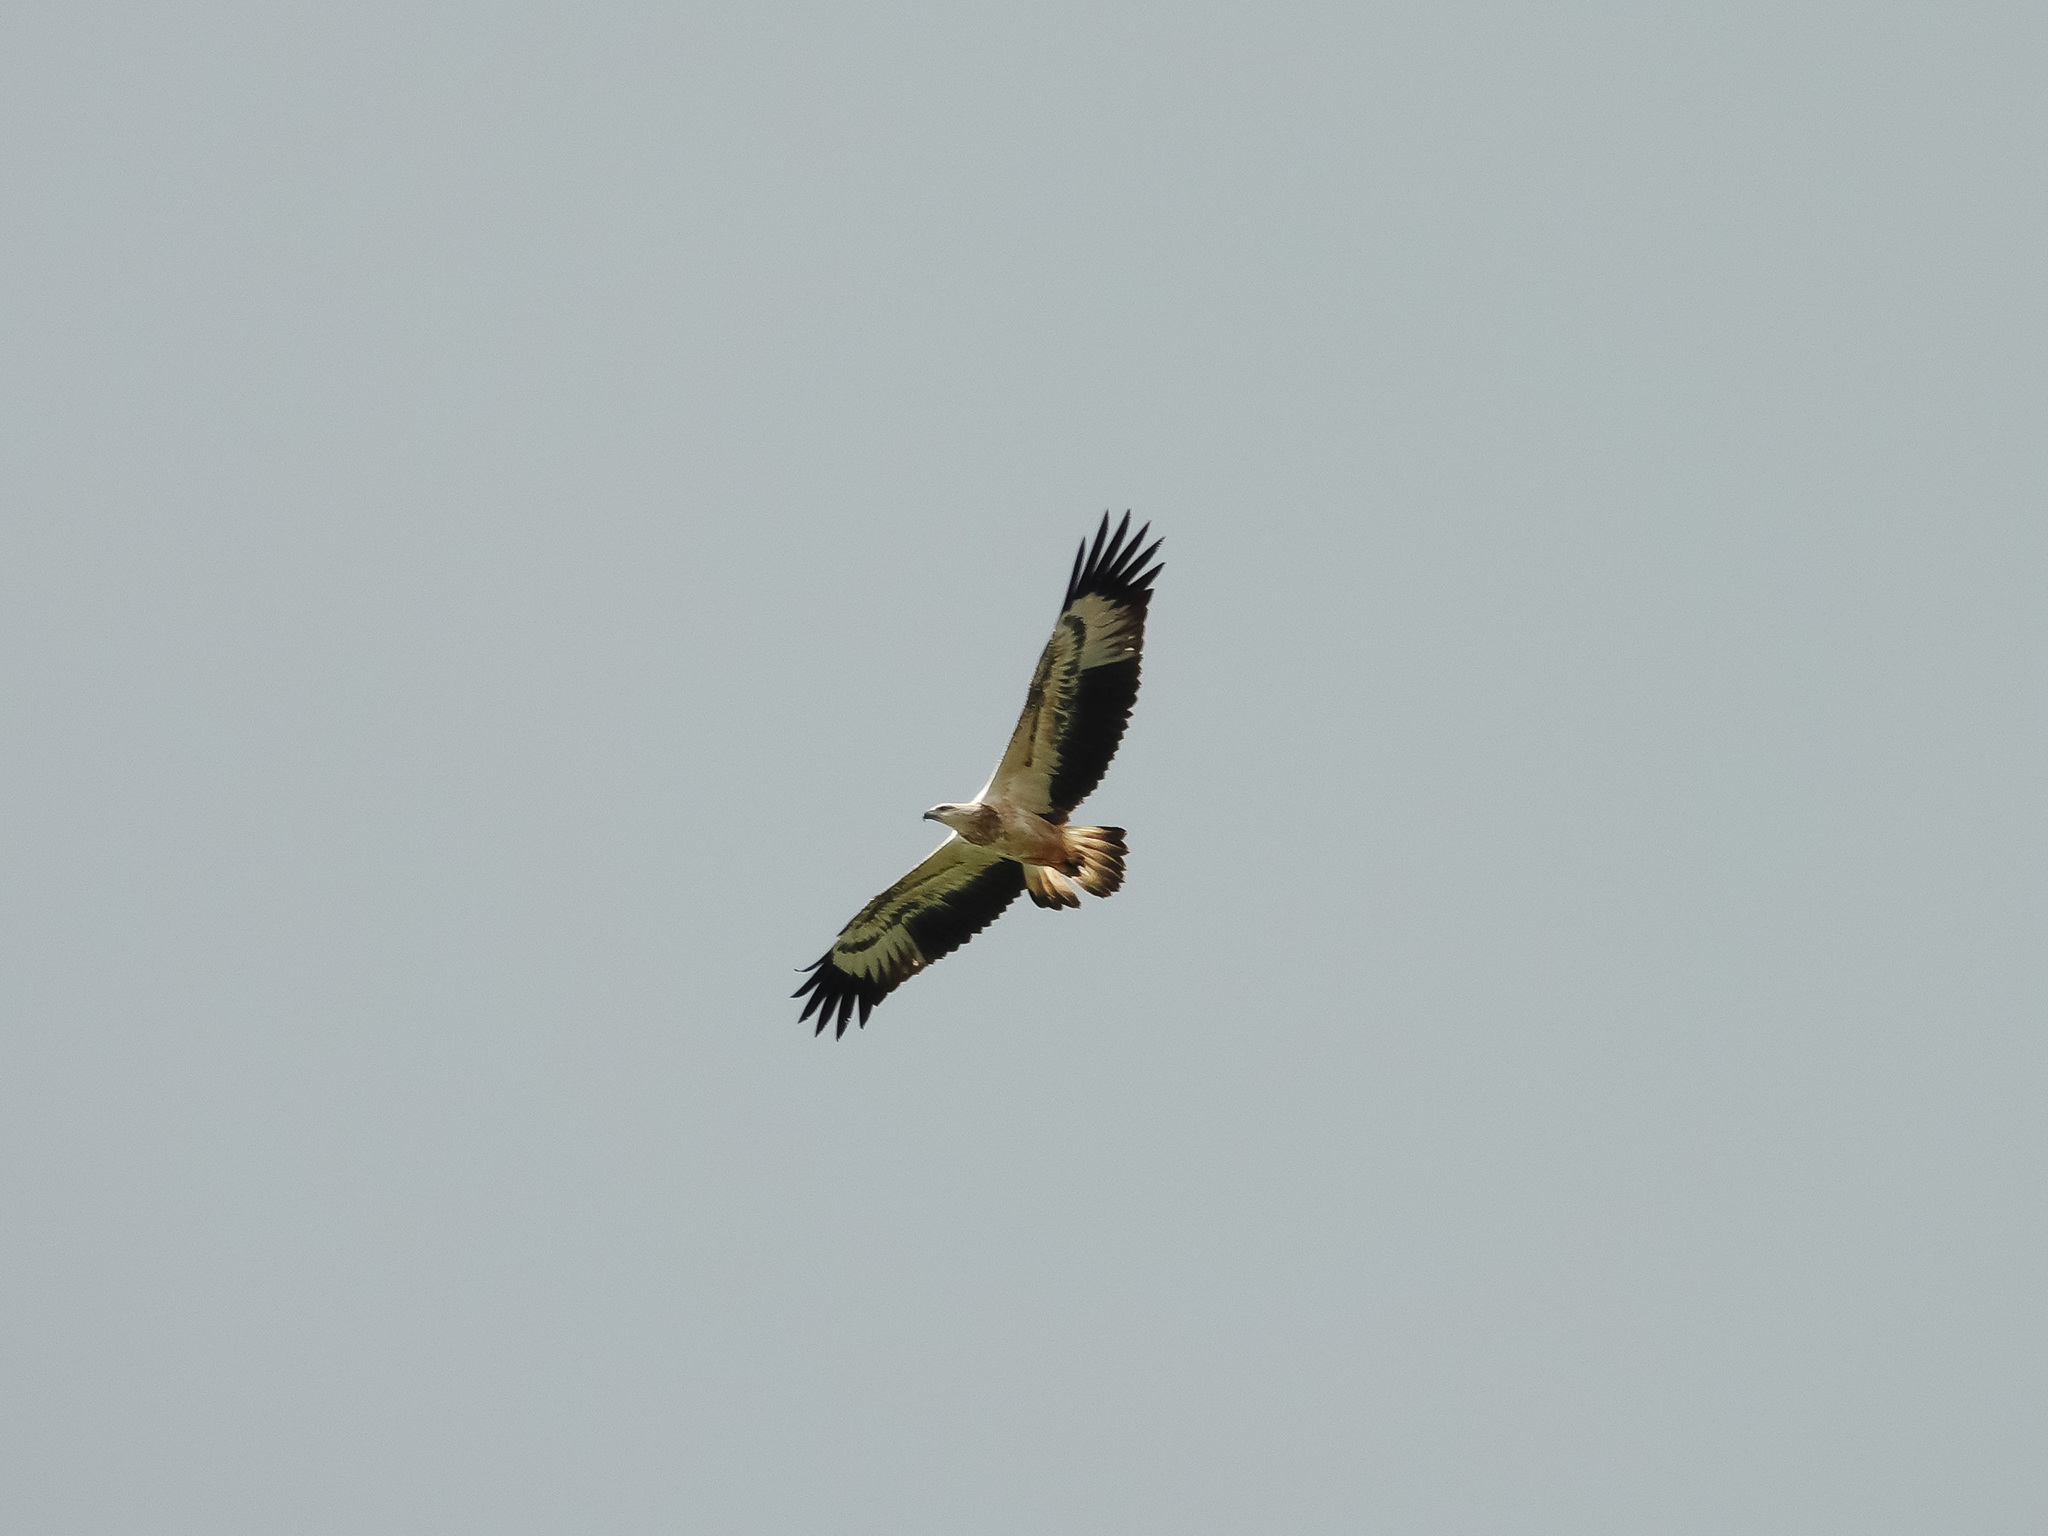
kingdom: Animalia
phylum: Chordata
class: Aves
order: Accipitriformes
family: Accipitridae
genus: Haliaeetus
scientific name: Haliaeetus leucogaster
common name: White-bellied sea eagle
